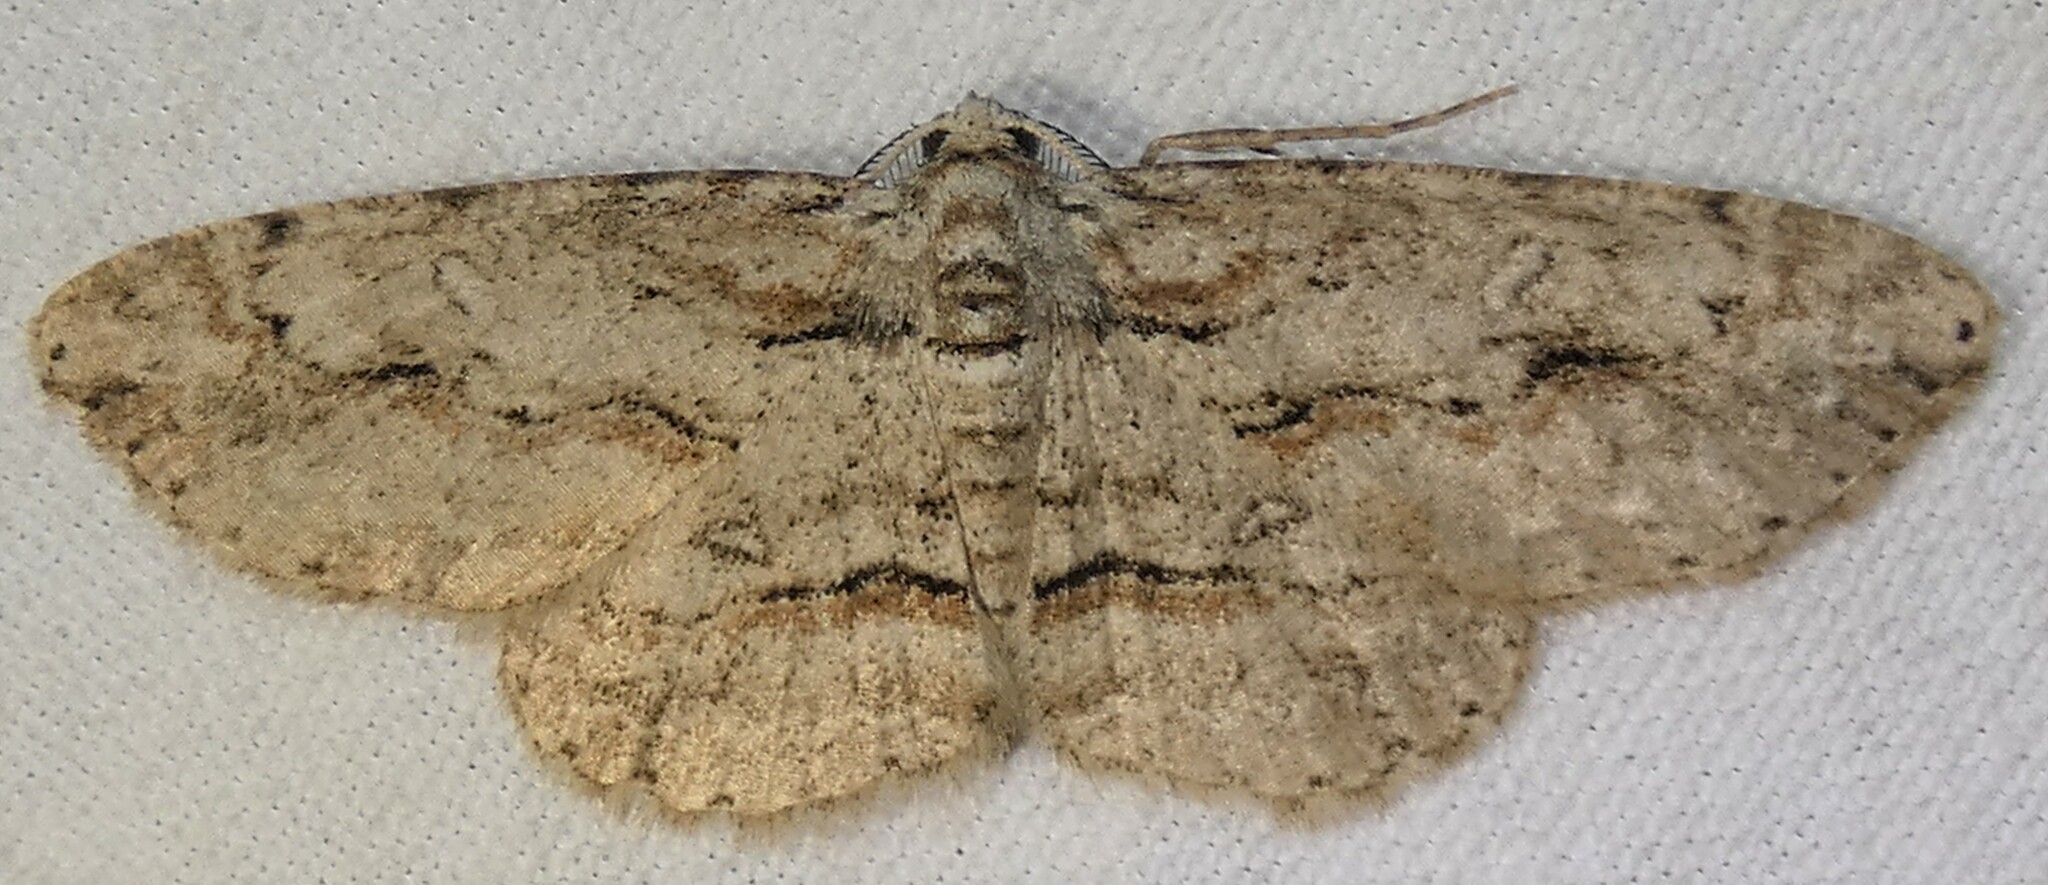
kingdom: Animalia
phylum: Arthropoda
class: Insecta
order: Lepidoptera
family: Geometridae
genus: Iridopsis
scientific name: Iridopsis defectaria
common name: Brown-shaded gray
